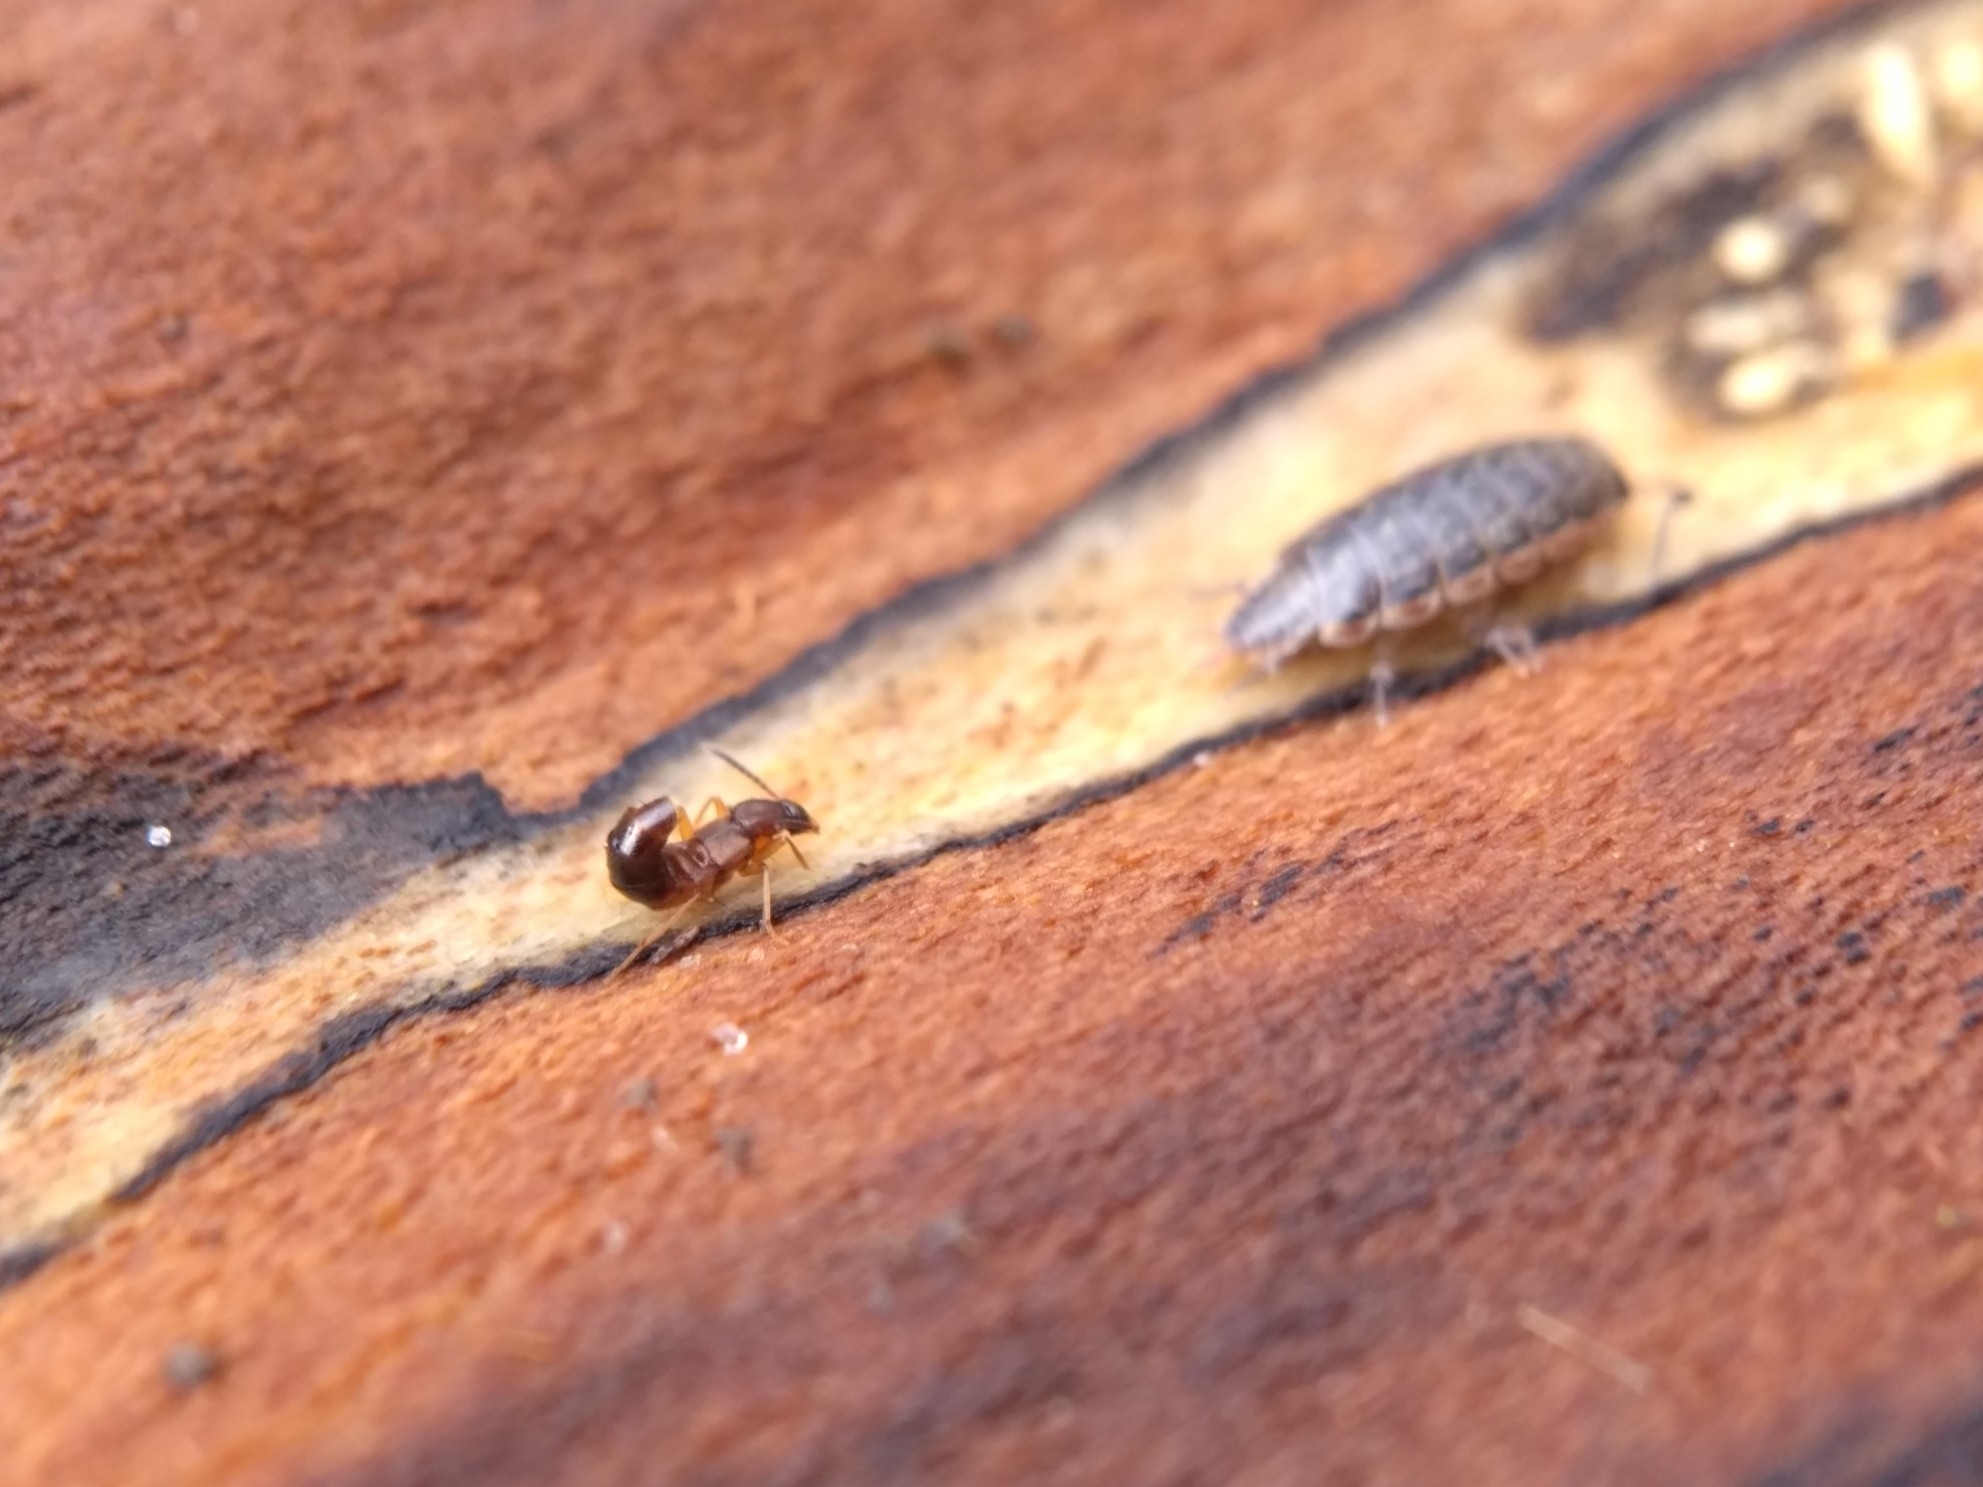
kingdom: Animalia
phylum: Arthropoda
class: Insecta
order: Coleoptera
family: Staphylinidae
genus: Drusilla
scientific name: Drusilla canaliculata
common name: Rove beetle
